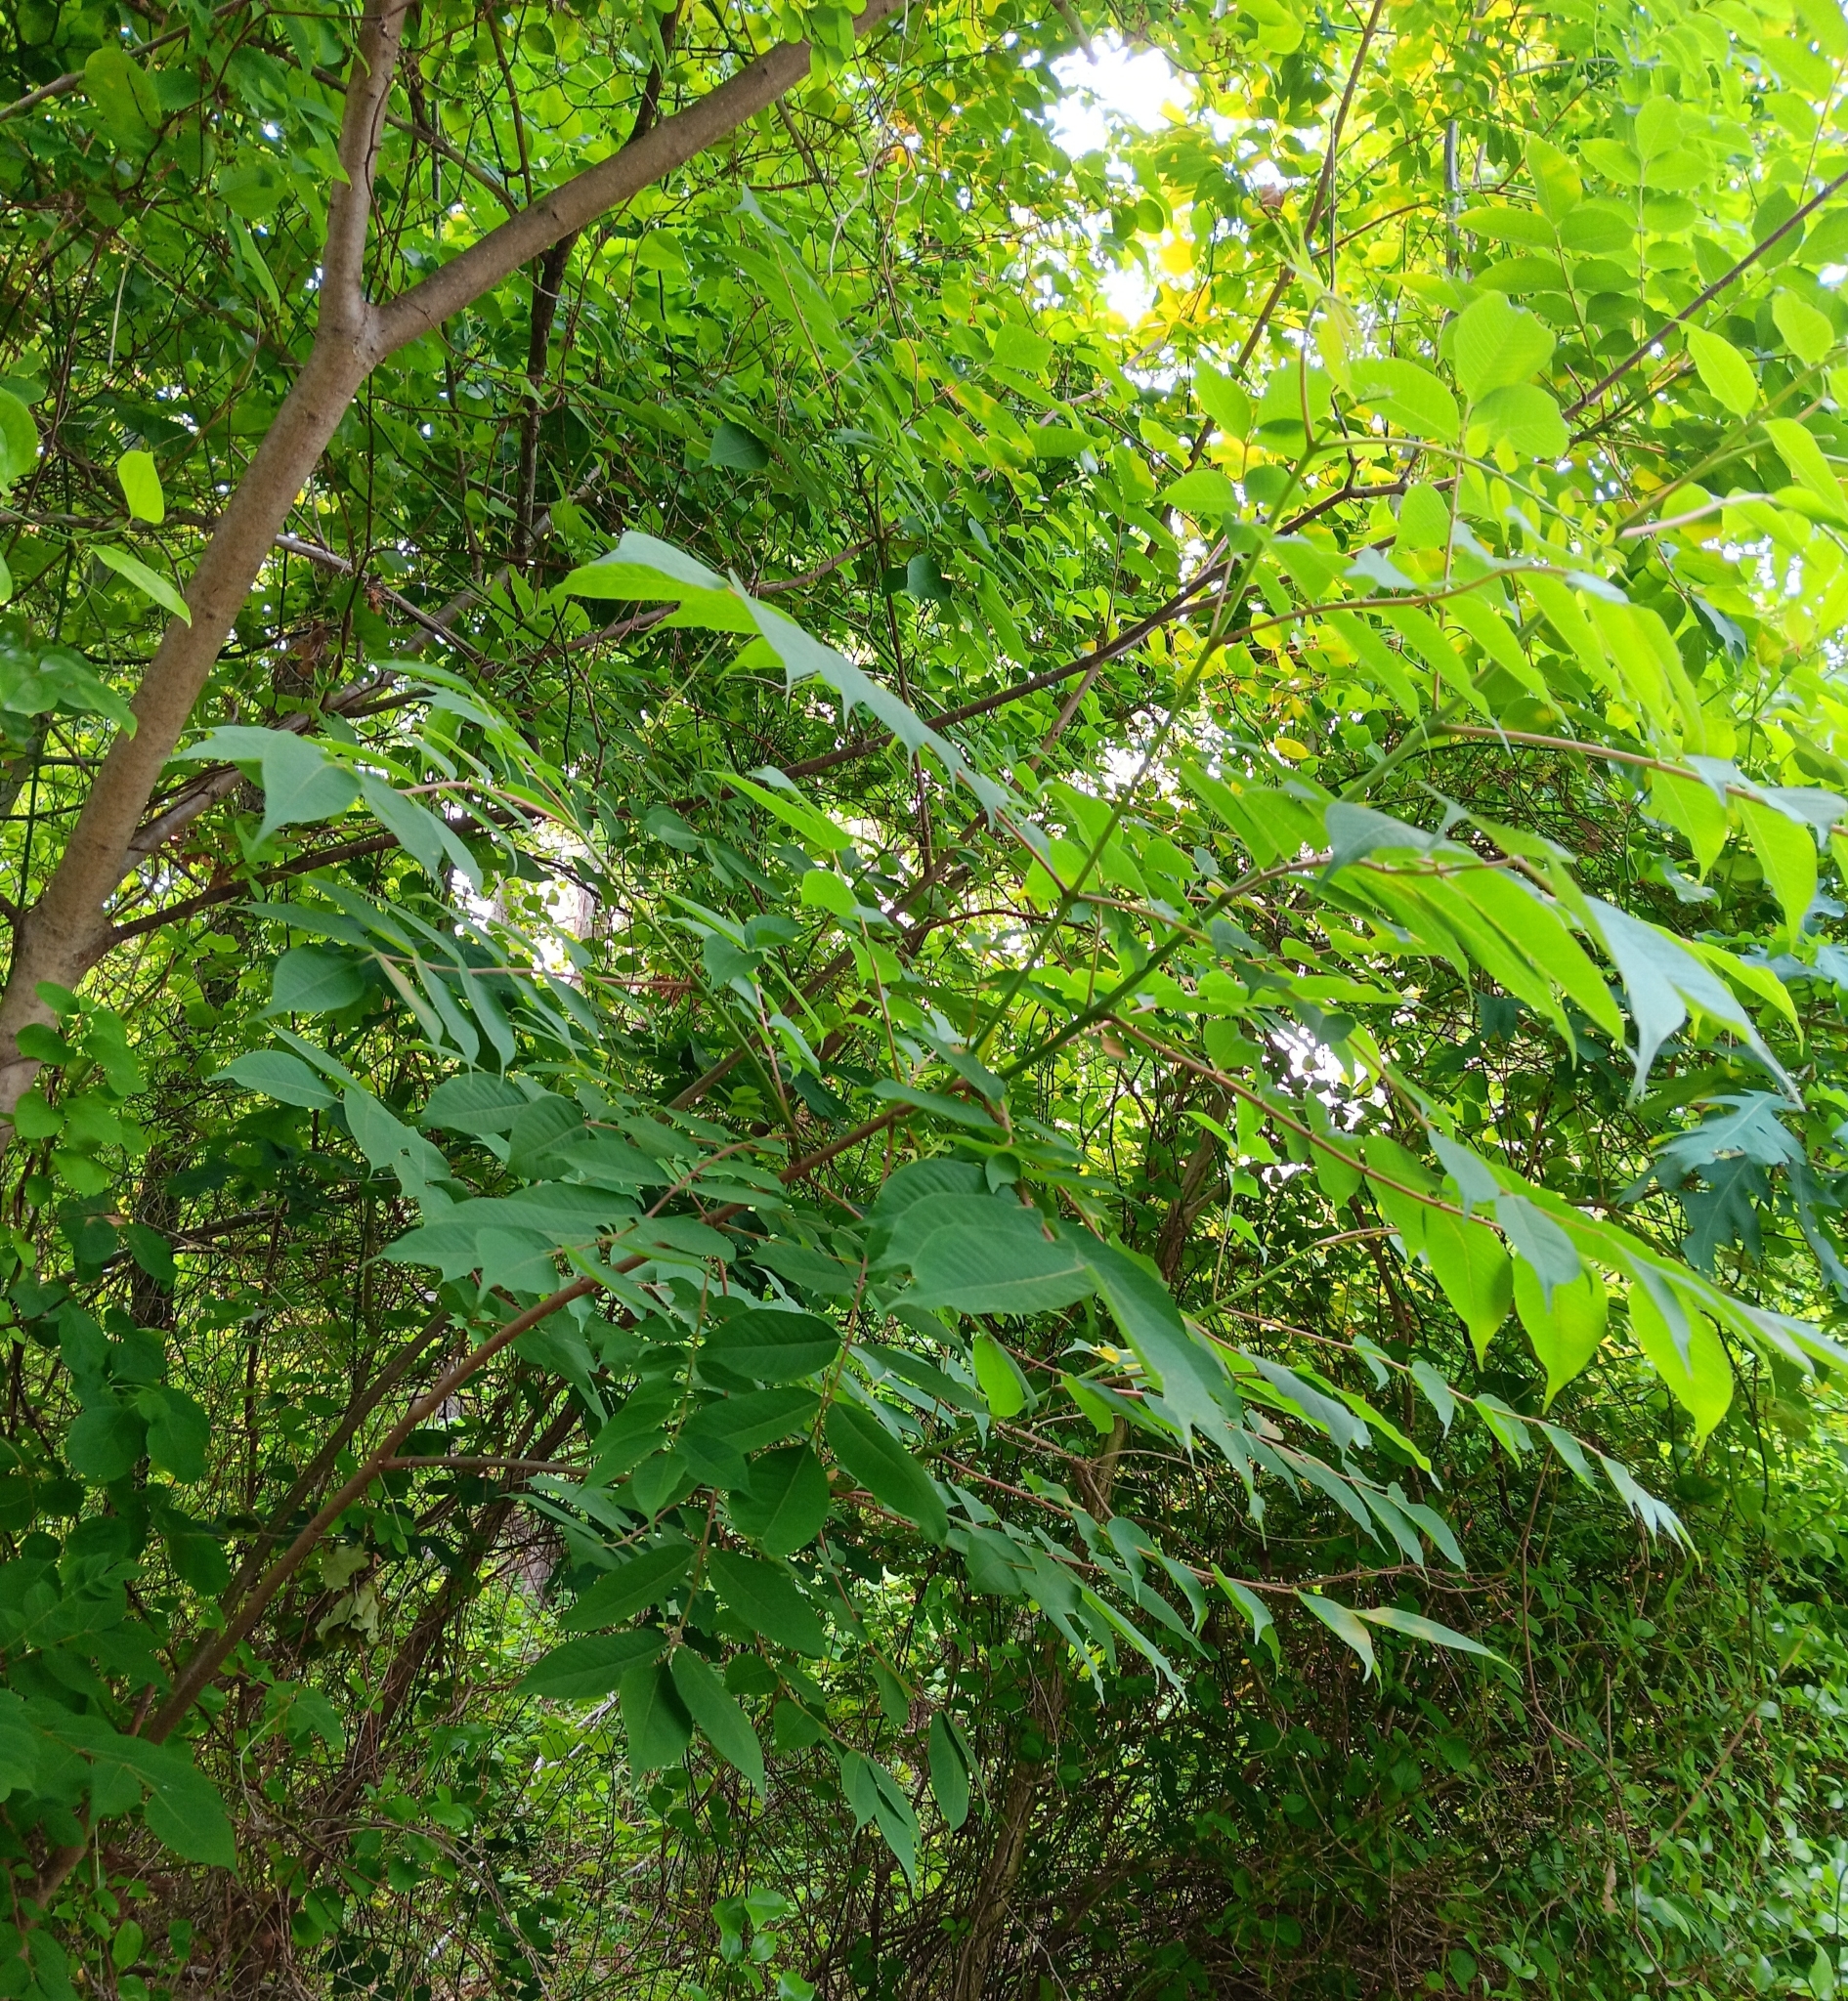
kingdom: Plantae
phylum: Tracheophyta
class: Magnoliopsida
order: Sapindales
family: Rutaceae
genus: Phellodendron
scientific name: Phellodendron amurense
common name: Amur corktree
